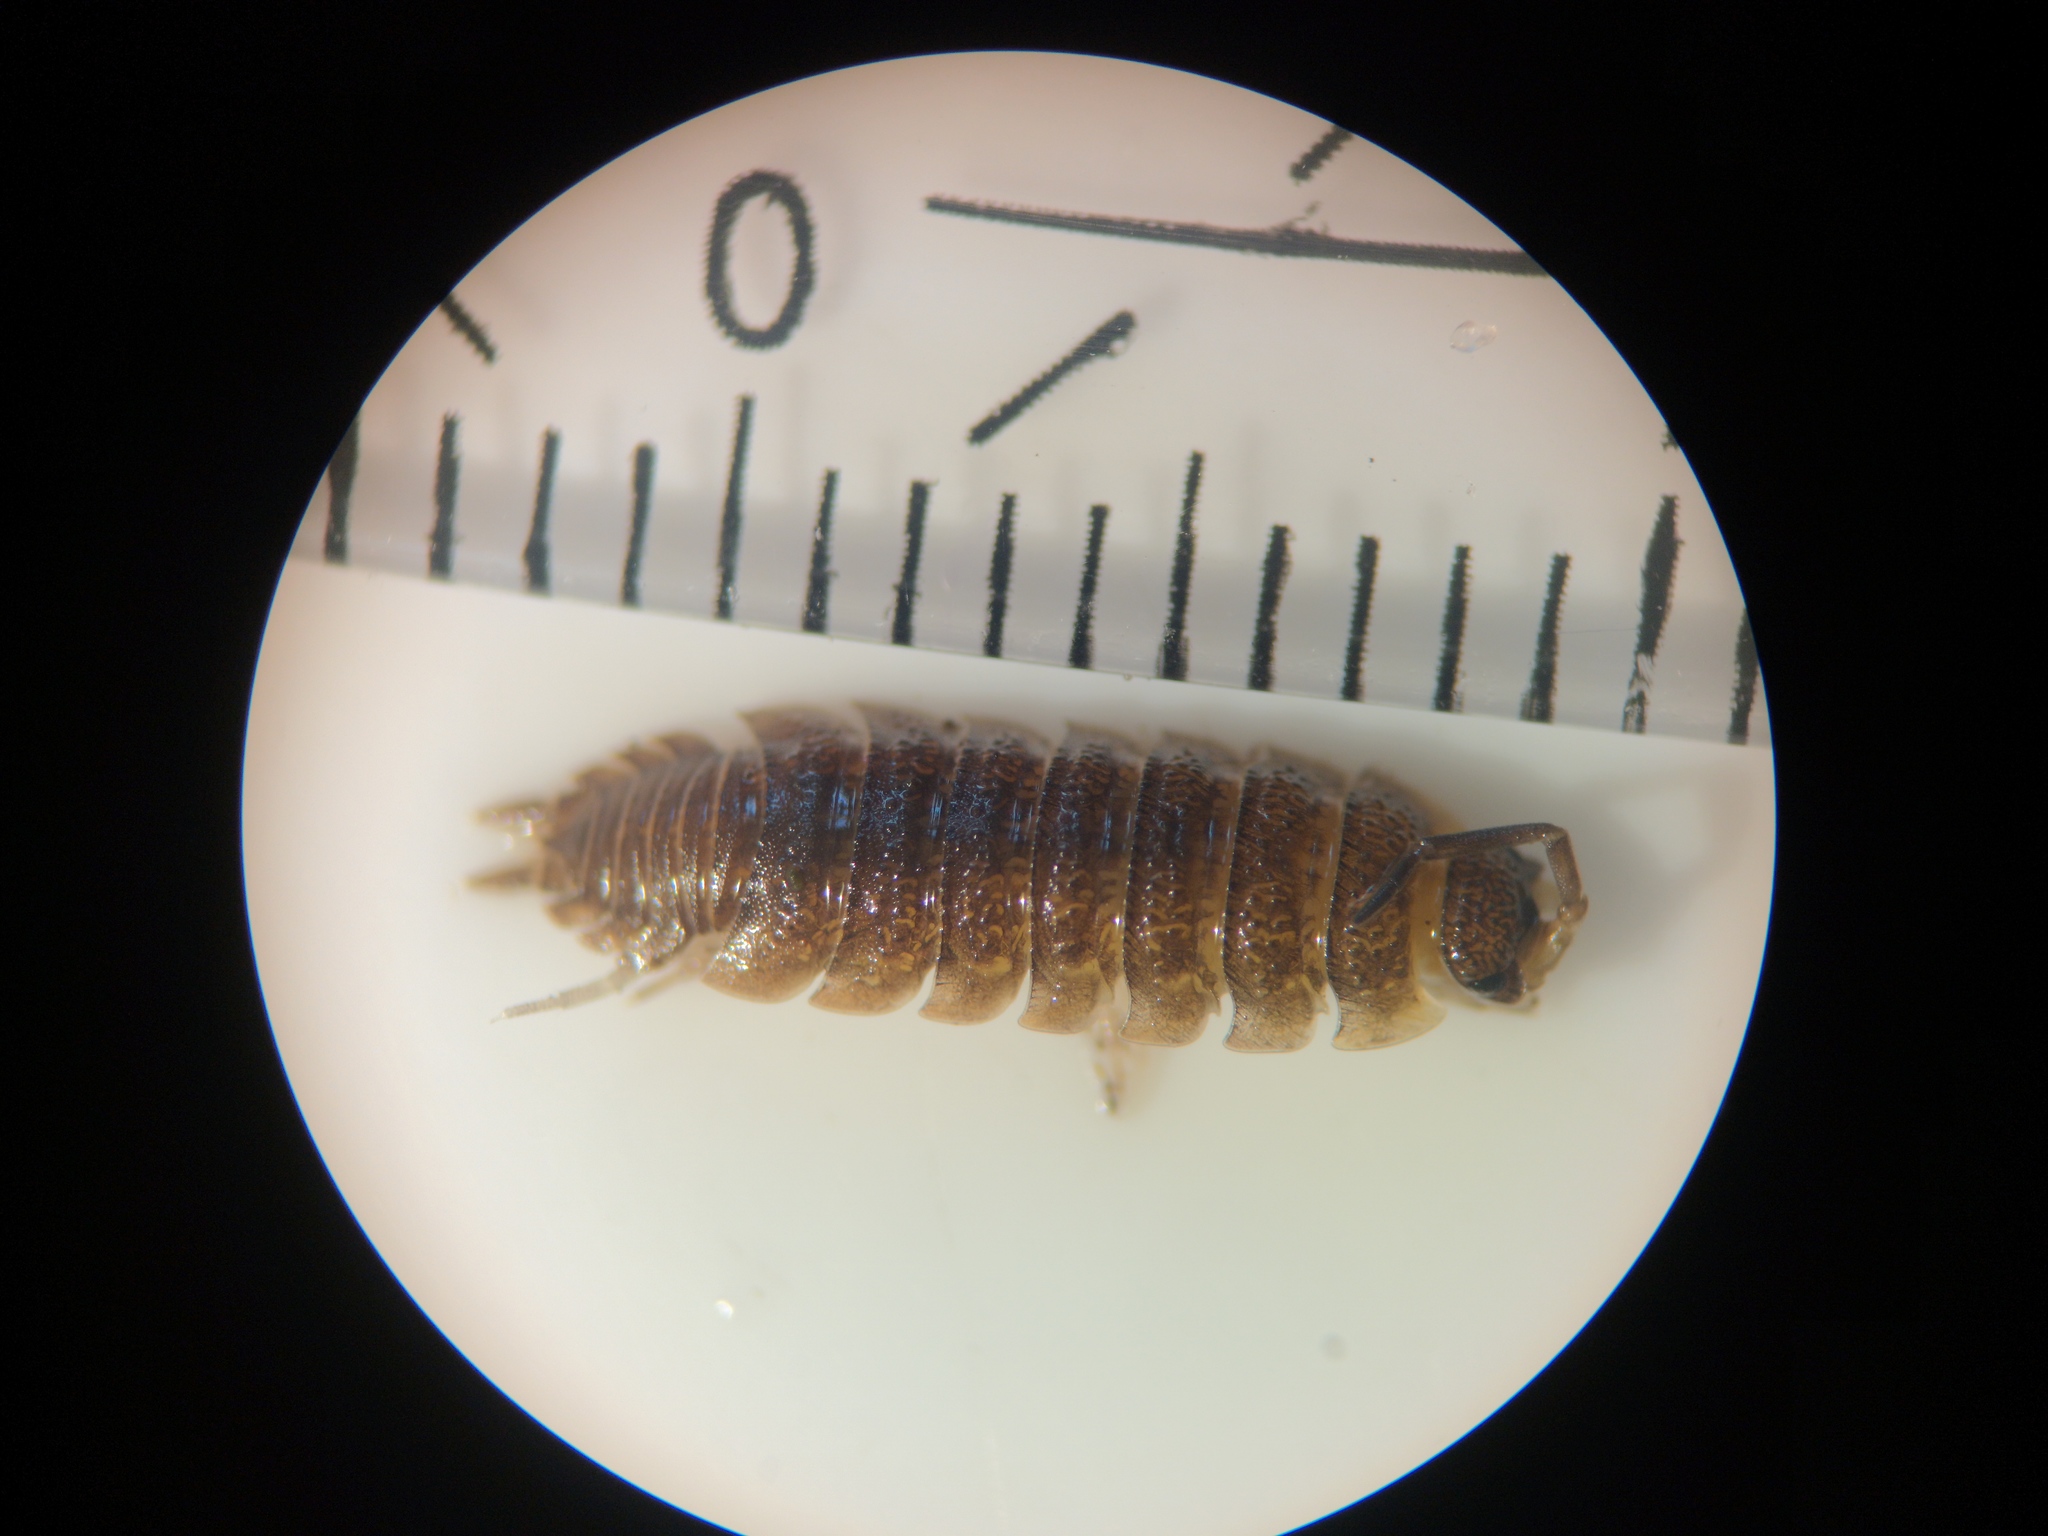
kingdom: Animalia
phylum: Arthropoda
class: Malacostraca
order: Isopoda
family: Porcellionidae
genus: Porcellio
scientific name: Porcellio scaber
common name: Common rough woodlouse
